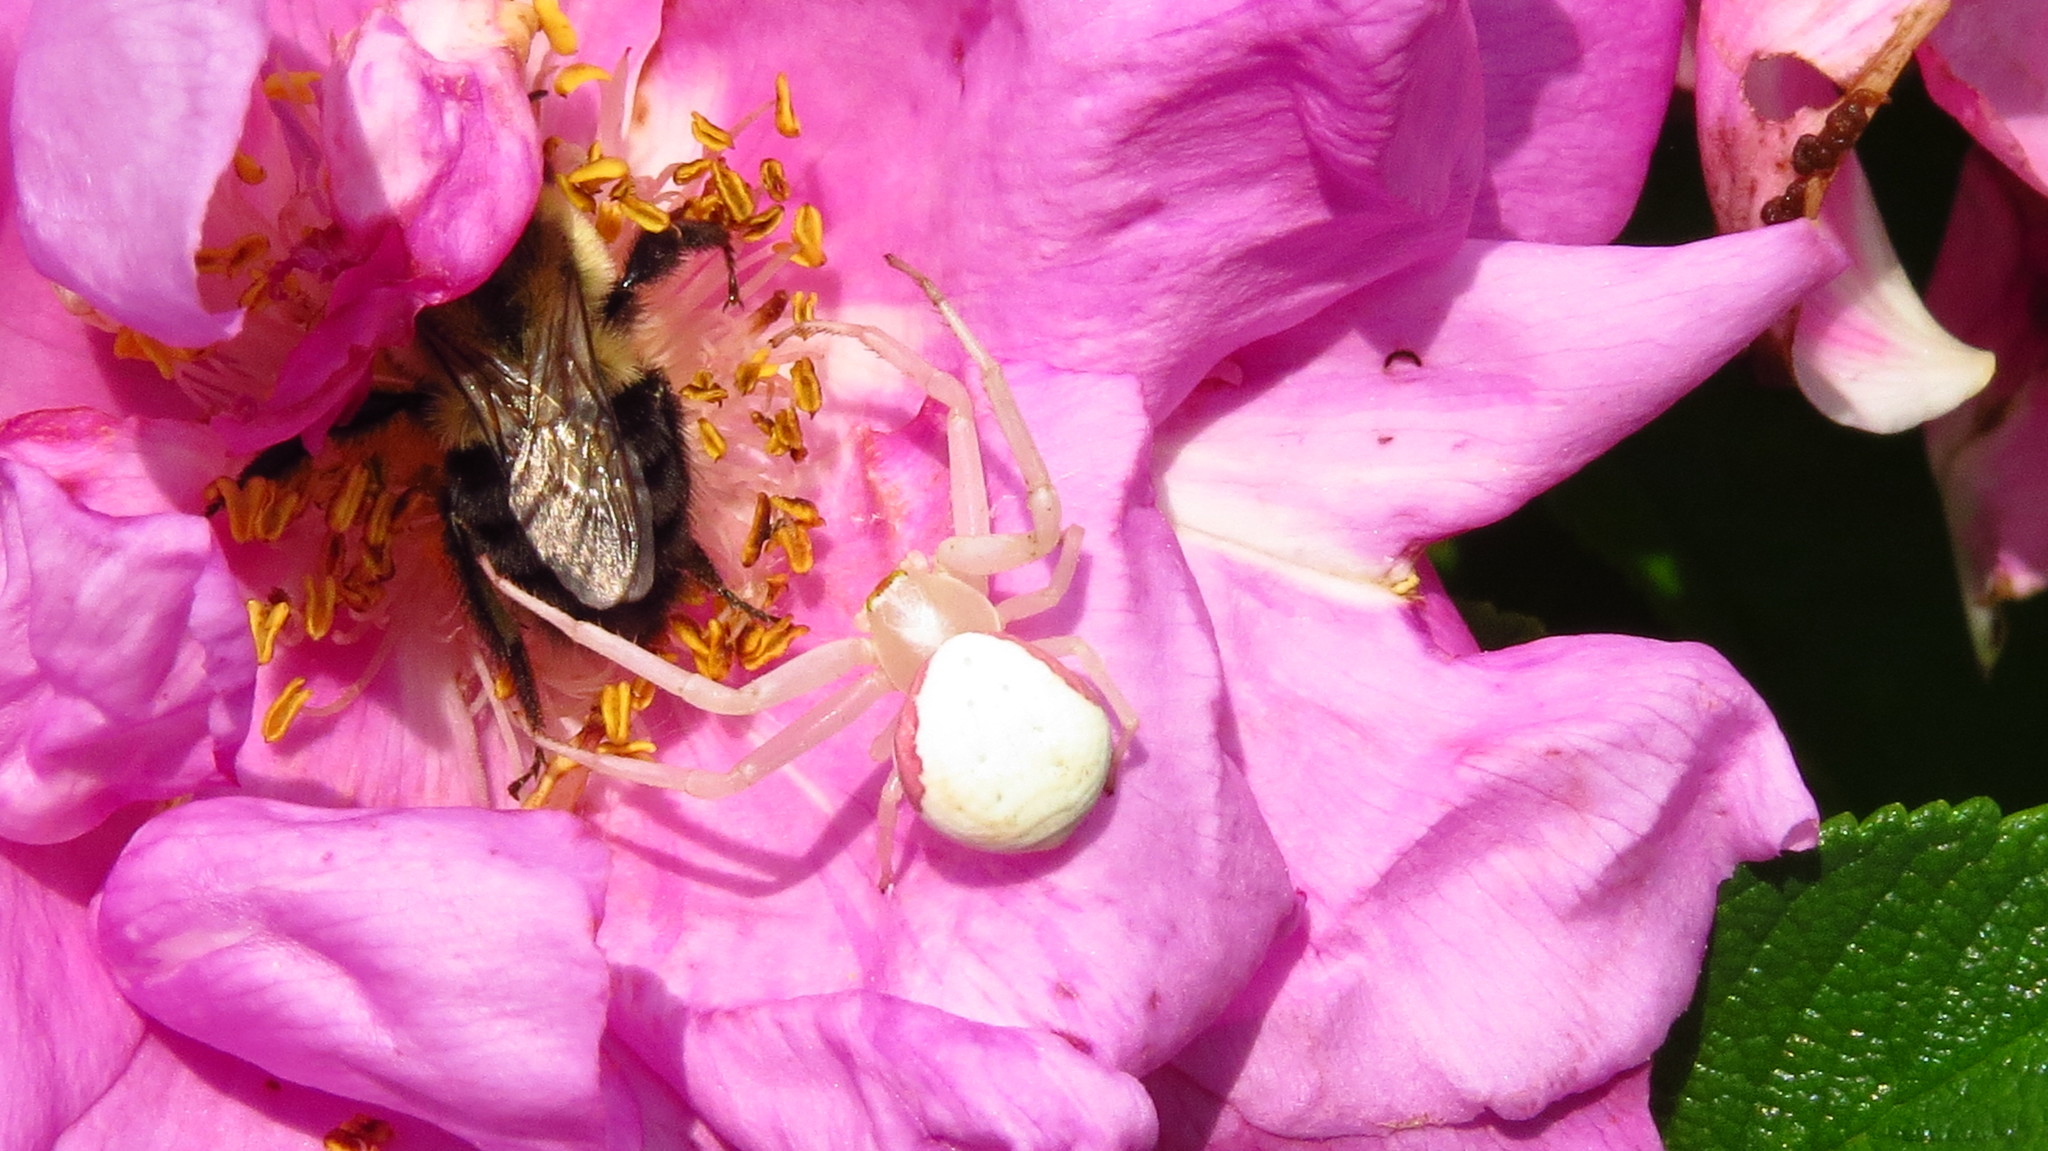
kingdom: Animalia
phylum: Arthropoda
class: Arachnida
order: Araneae
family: Thomisidae
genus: Misumena
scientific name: Misumena vatia
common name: Goldenrod crab spider
